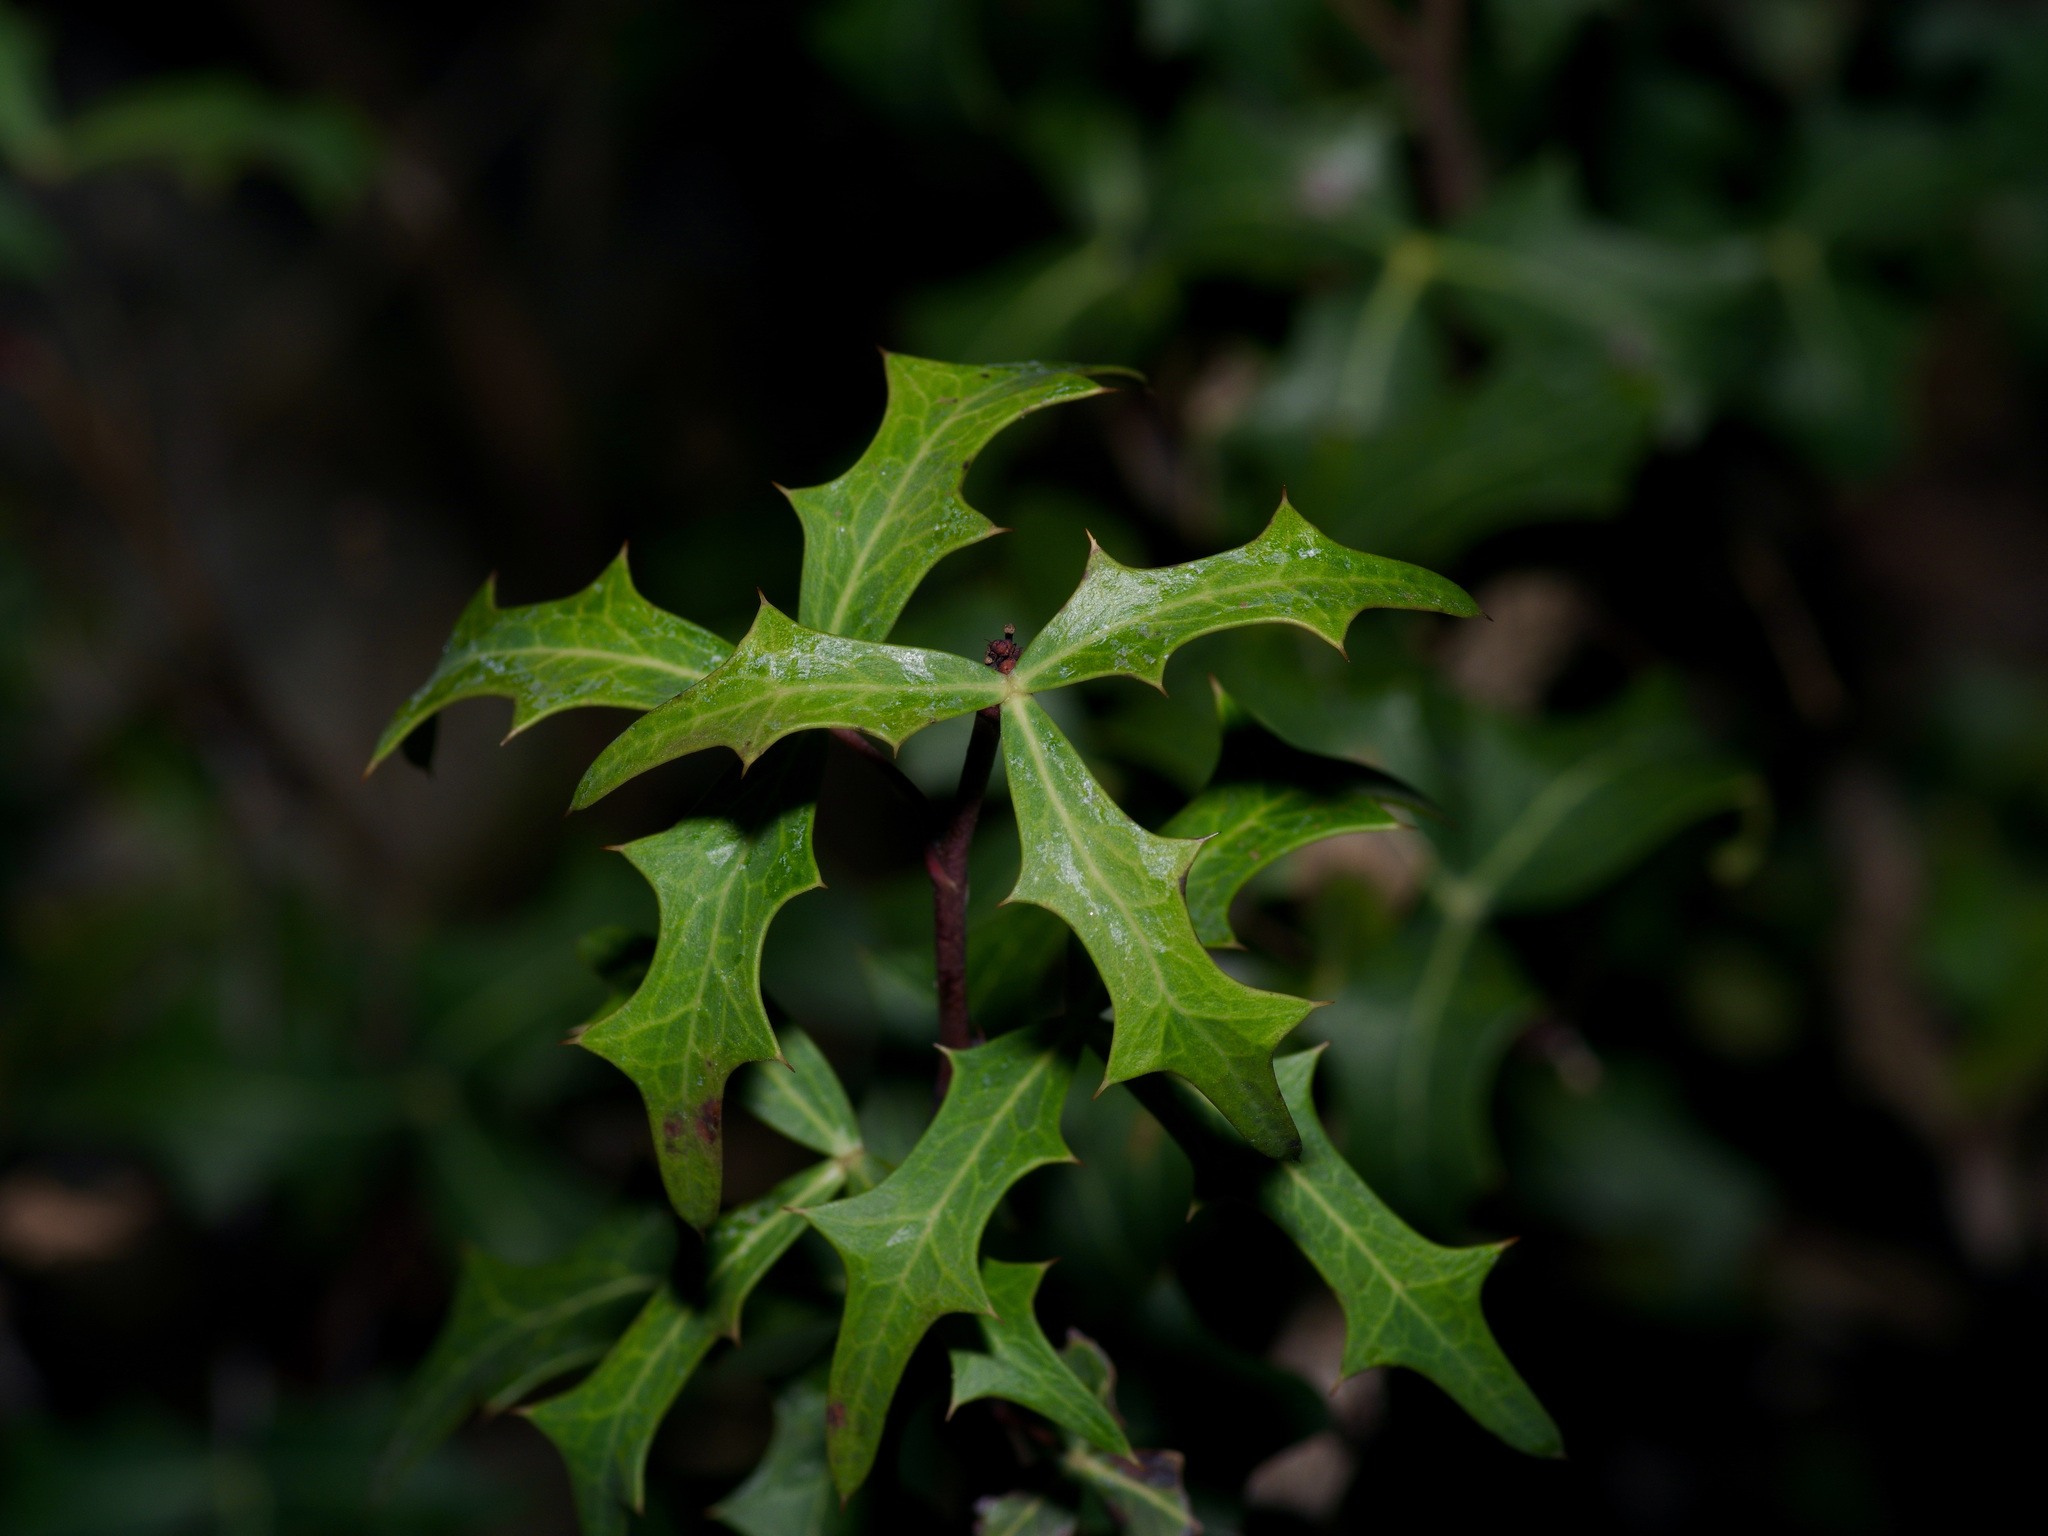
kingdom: Plantae
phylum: Tracheophyta
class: Magnoliopsida
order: Ranunculales
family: Berberidaceae
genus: Alloberberis
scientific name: Alloberberis trifoliolata
